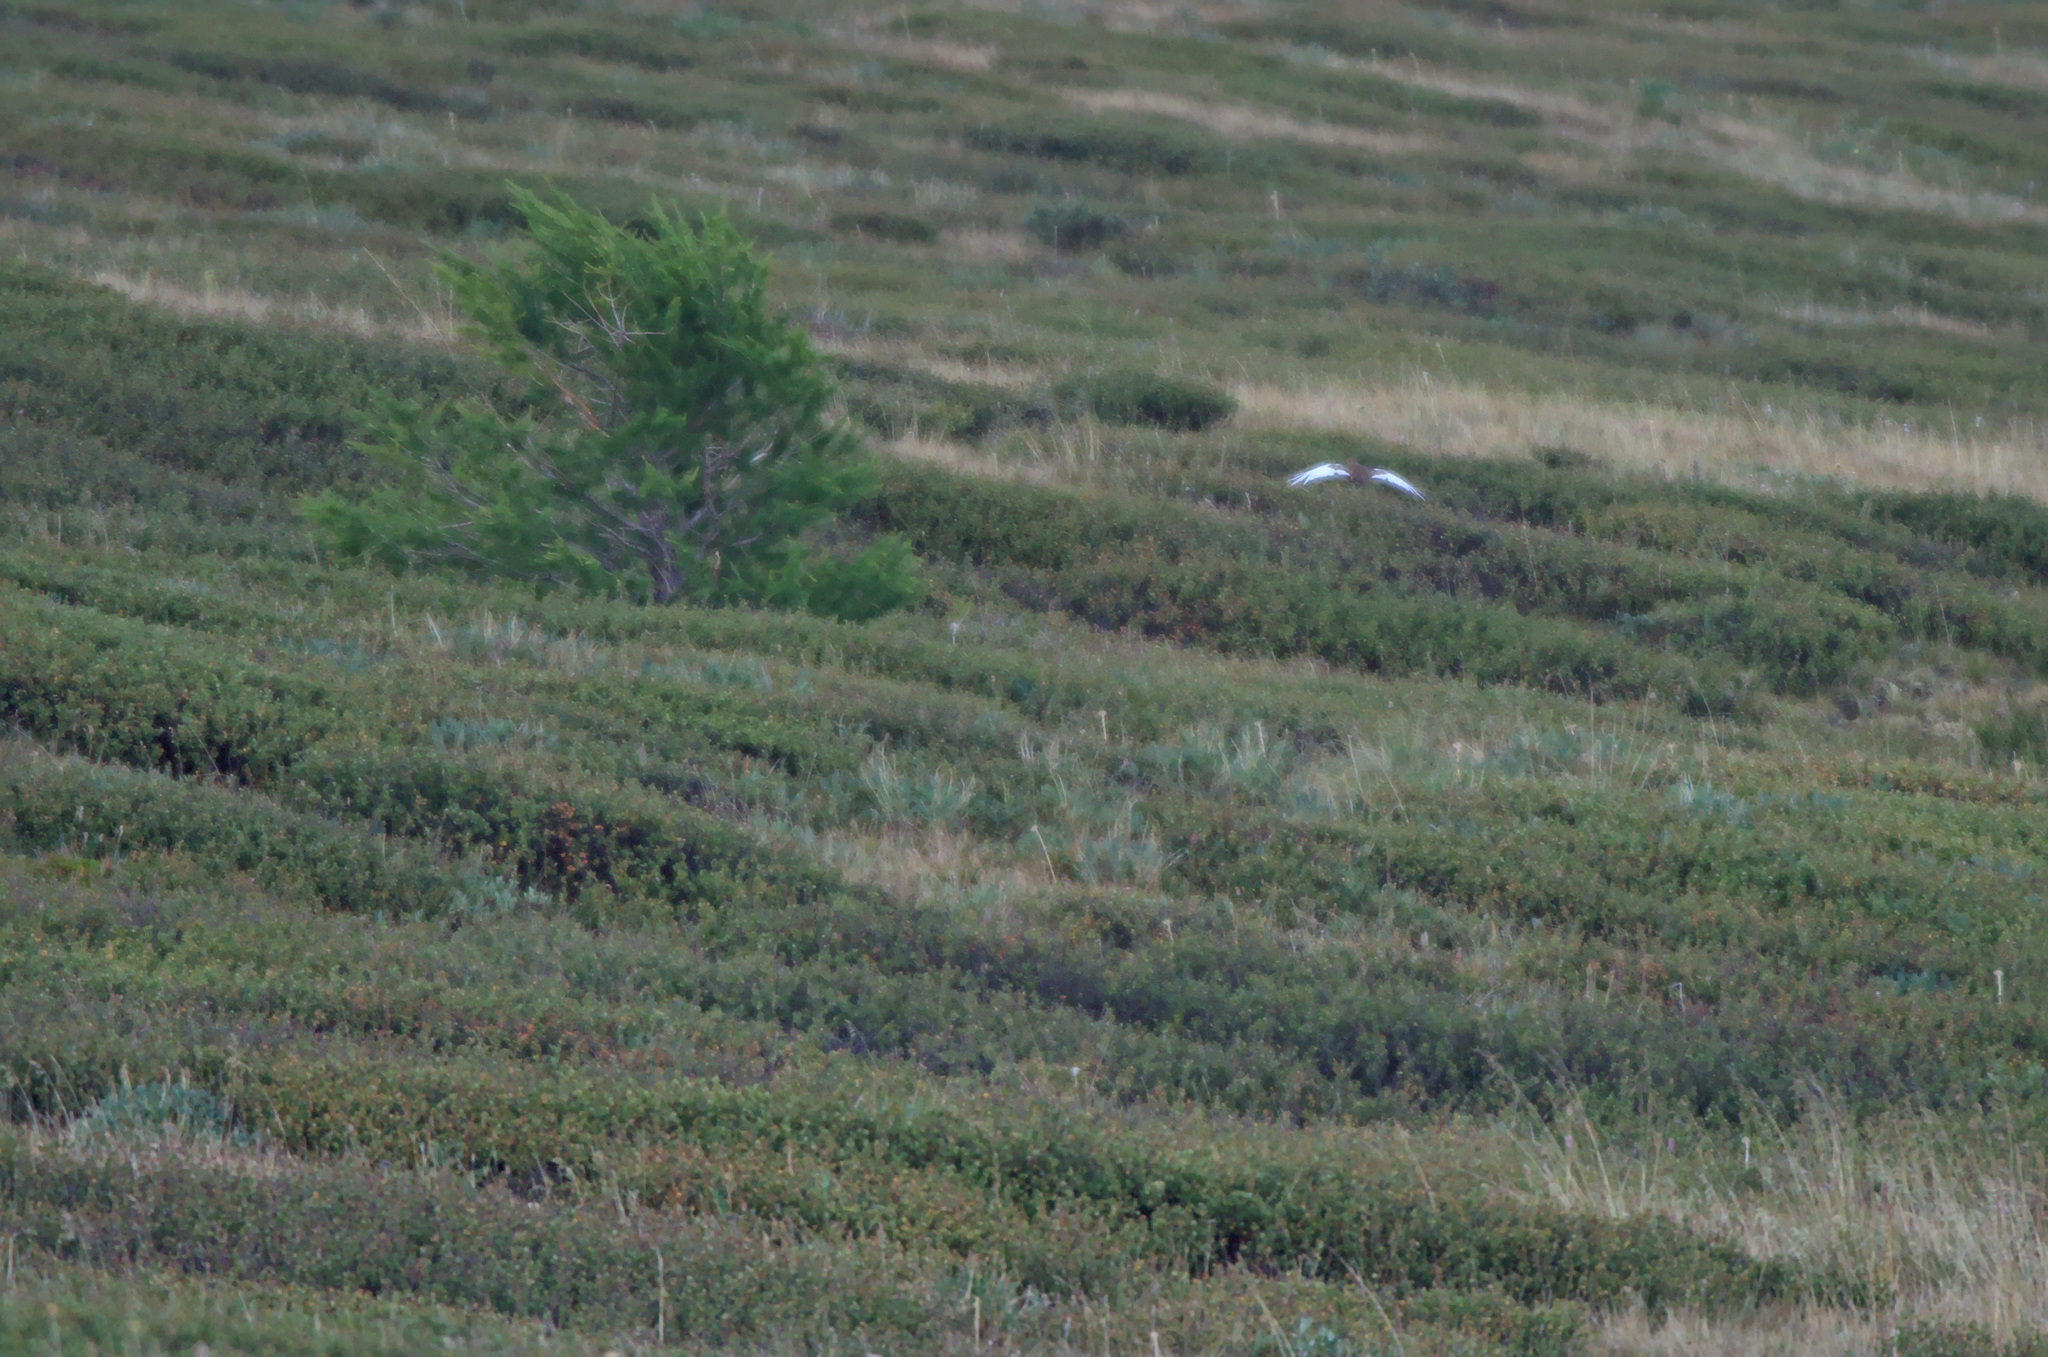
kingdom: Animalia
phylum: Chordata
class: Aves
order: Galliformes
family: Phasianidae
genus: Lagopus
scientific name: Lagopus lagopus
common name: Willow ptarmigan
